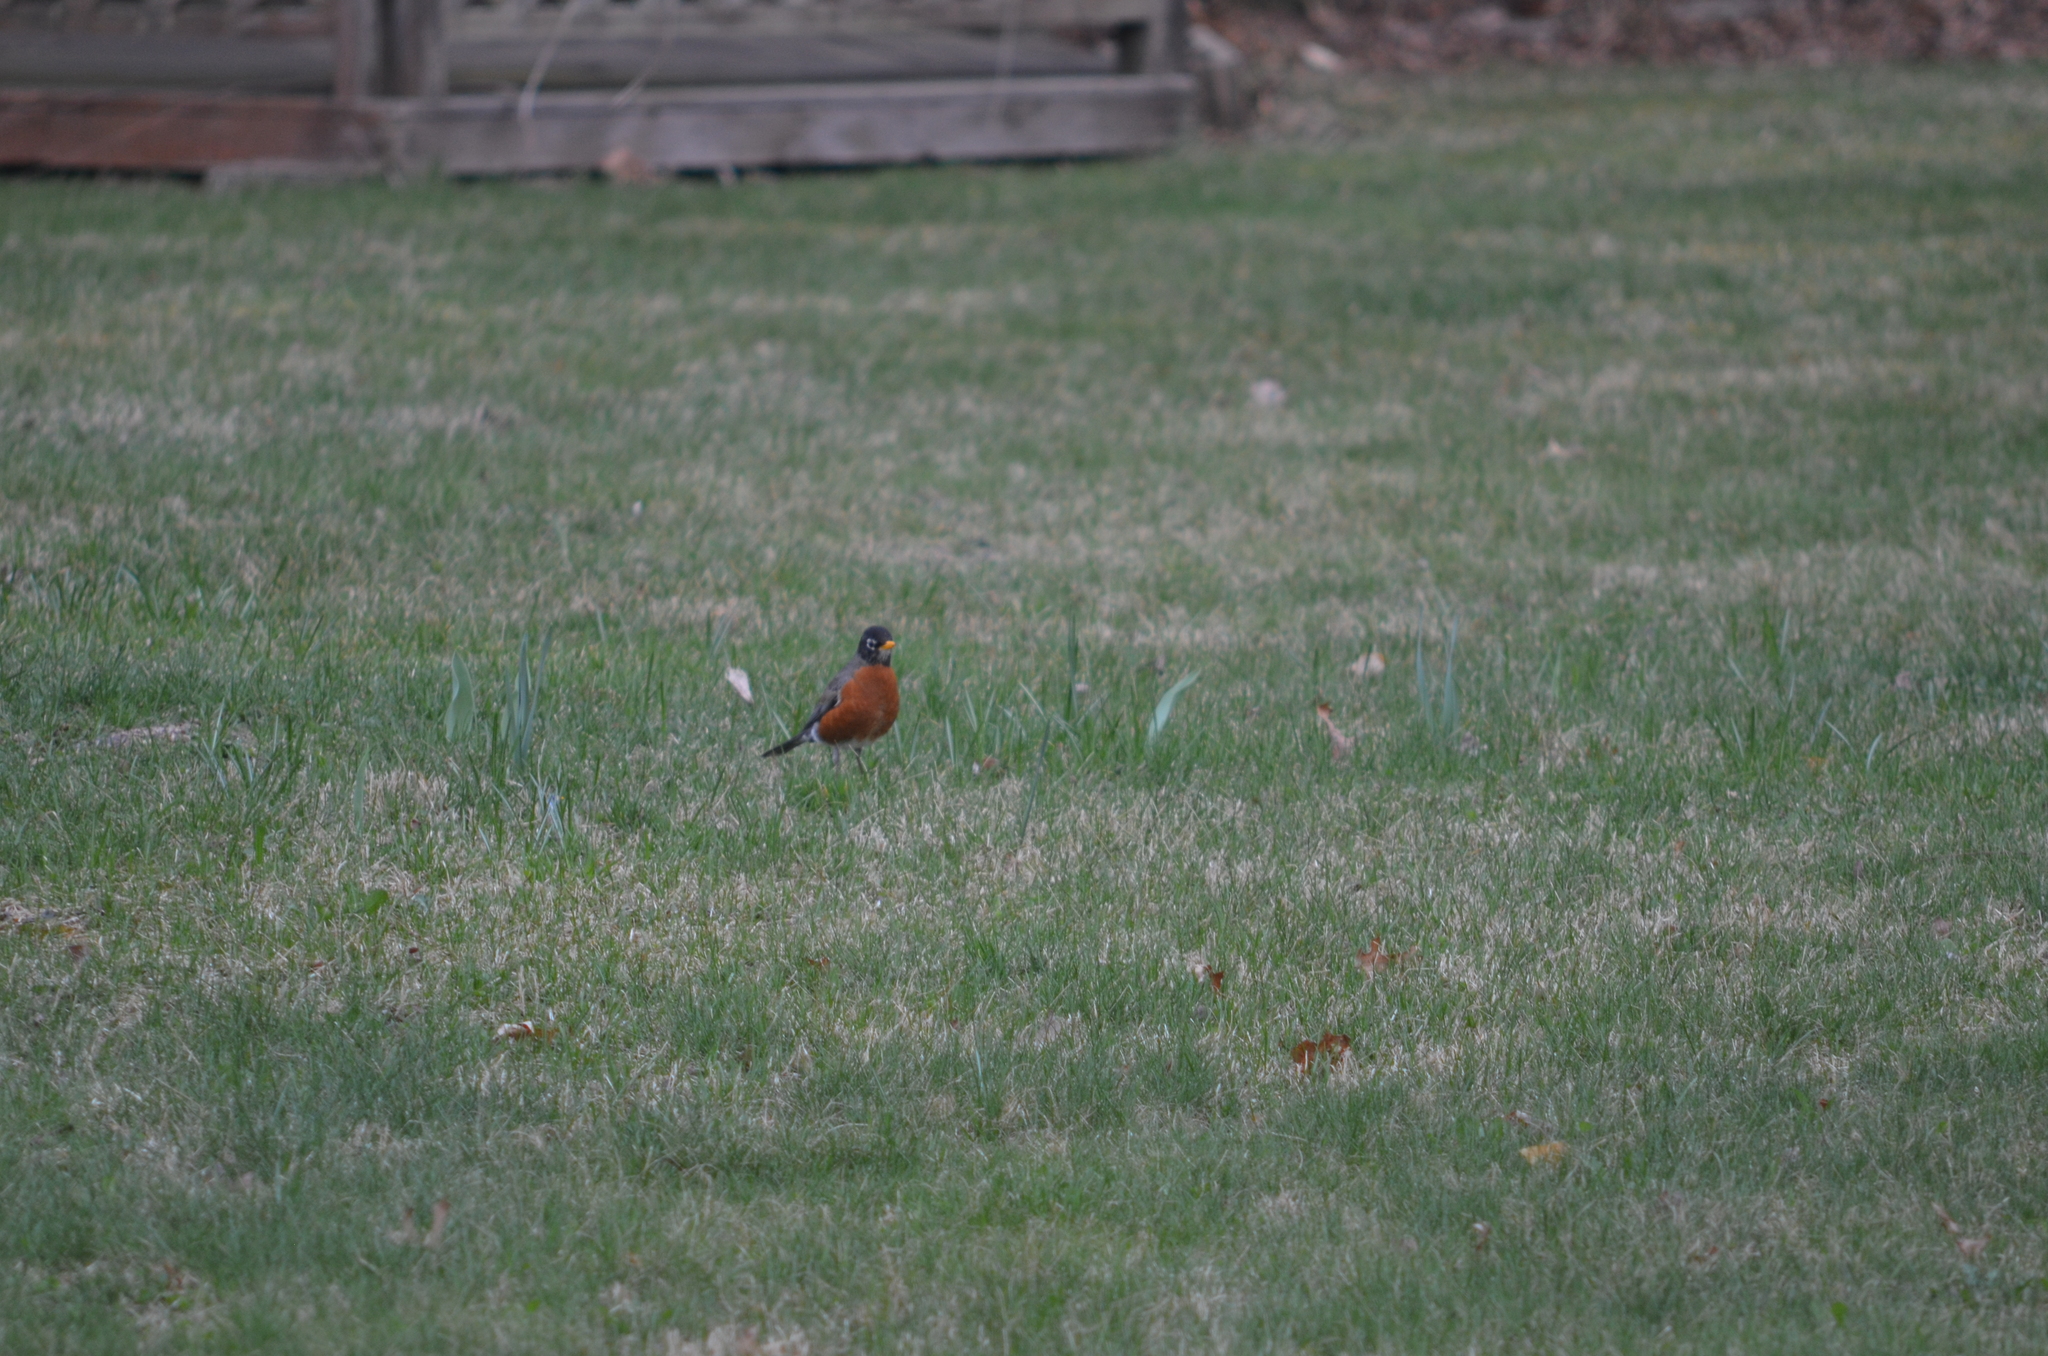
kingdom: Animalia
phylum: Chordata
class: Aves
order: Passeriformes
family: Turdidae
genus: Turdus
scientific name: Turdus migratorius
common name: American robin
